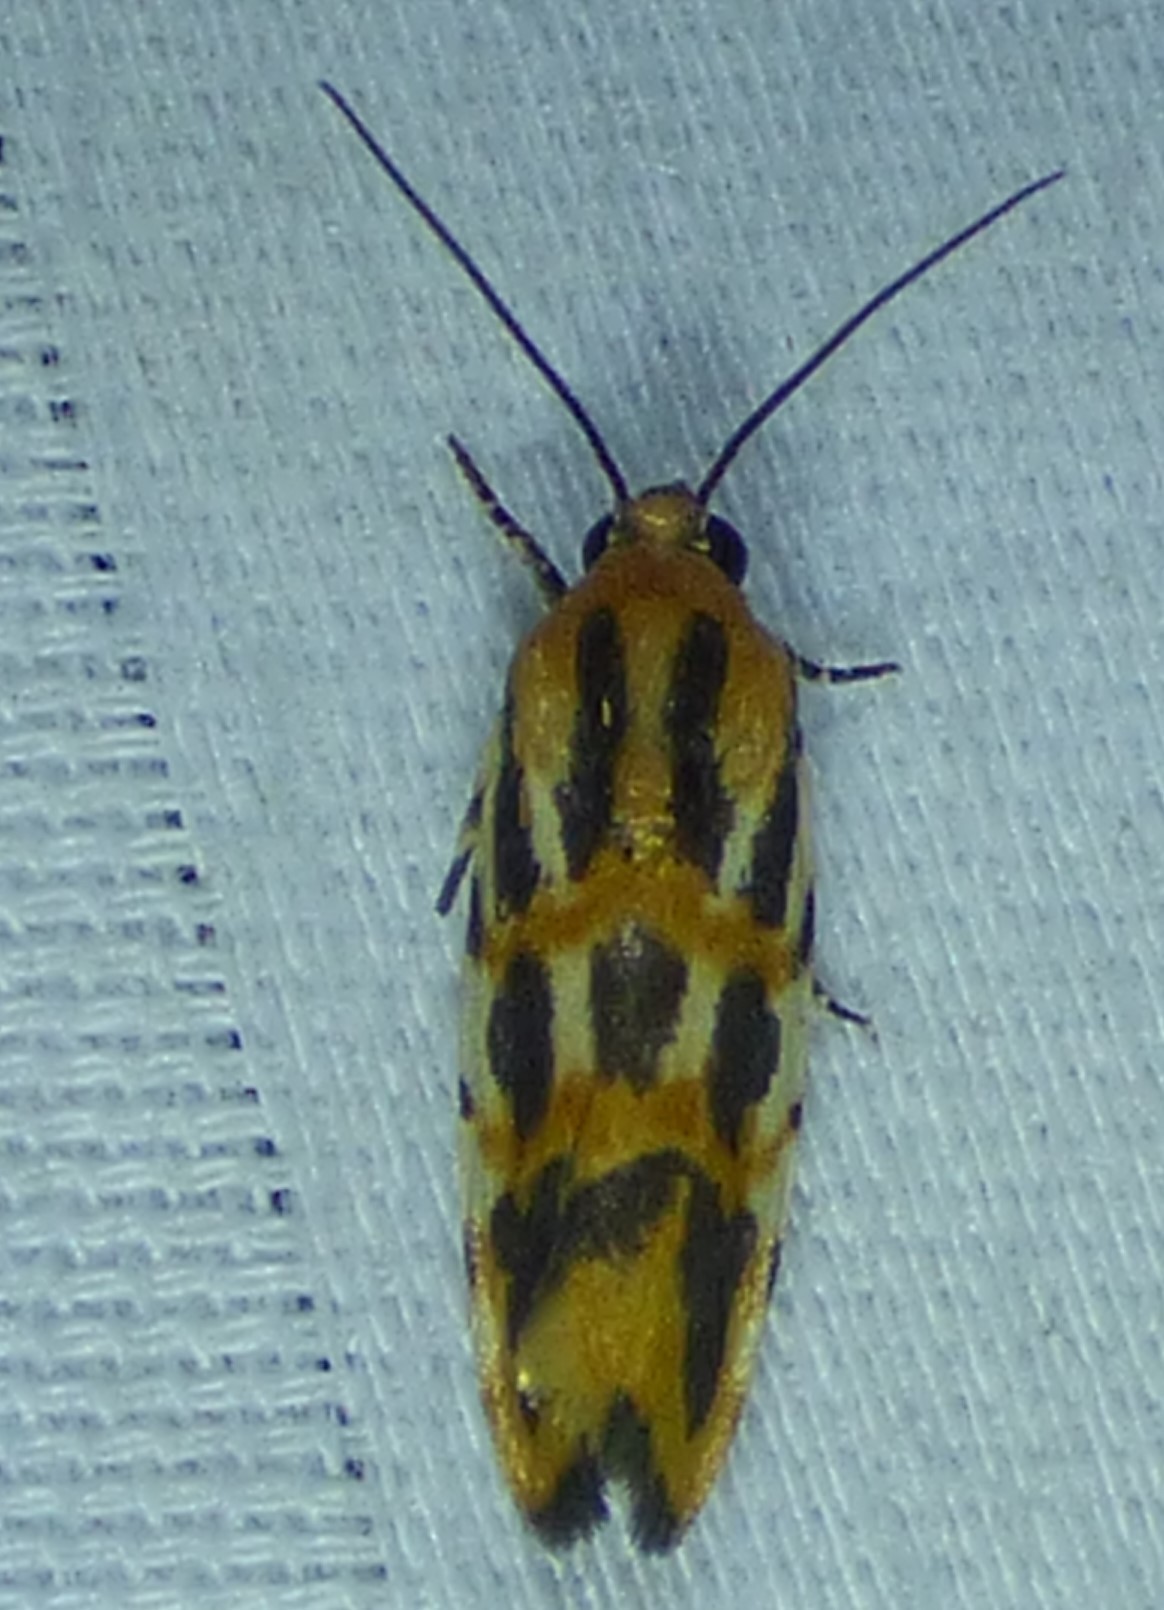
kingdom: Animalia
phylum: Arthropoda
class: Insecta
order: Lepidoptera
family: Noctuidae
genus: Acontia
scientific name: Acontia leo
